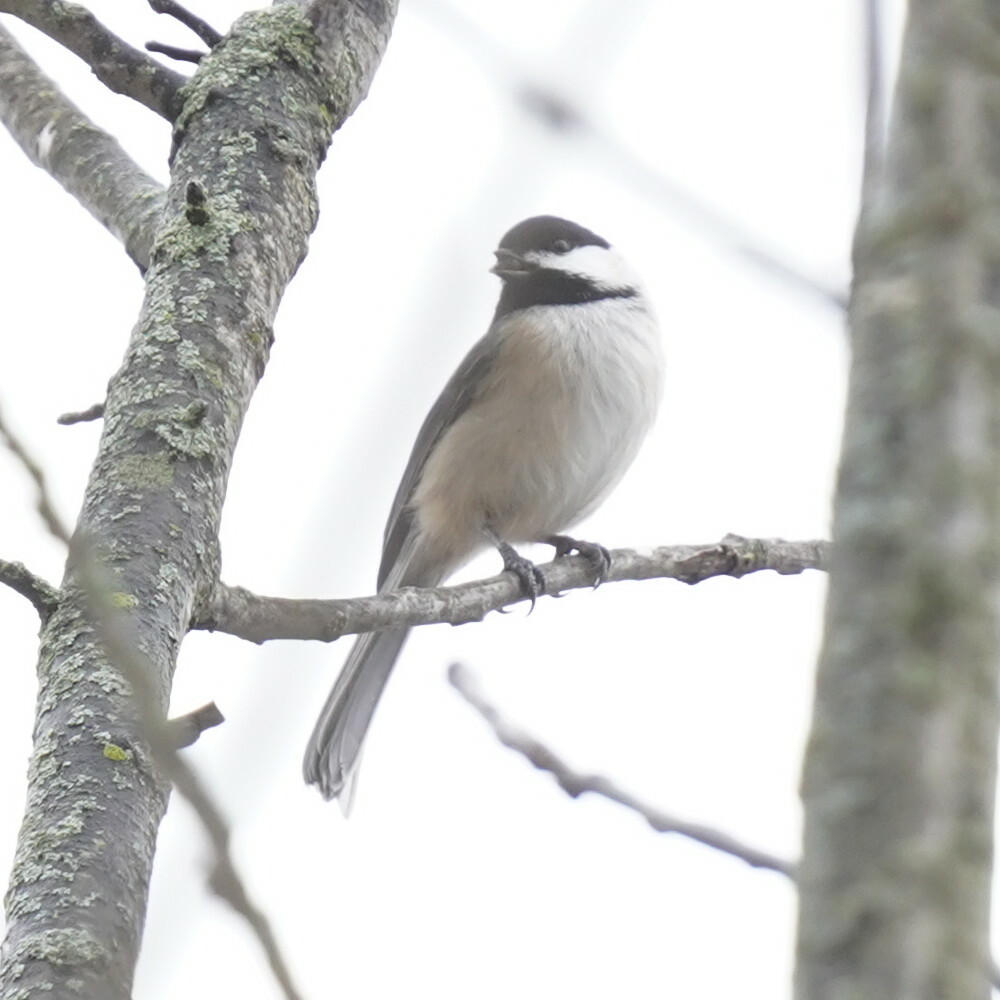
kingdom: Animalia
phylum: Chordata
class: Aves
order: Passeriformes
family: Paridae
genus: Poecile
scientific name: Poecile atricapillus
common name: Black-capped chickadee
